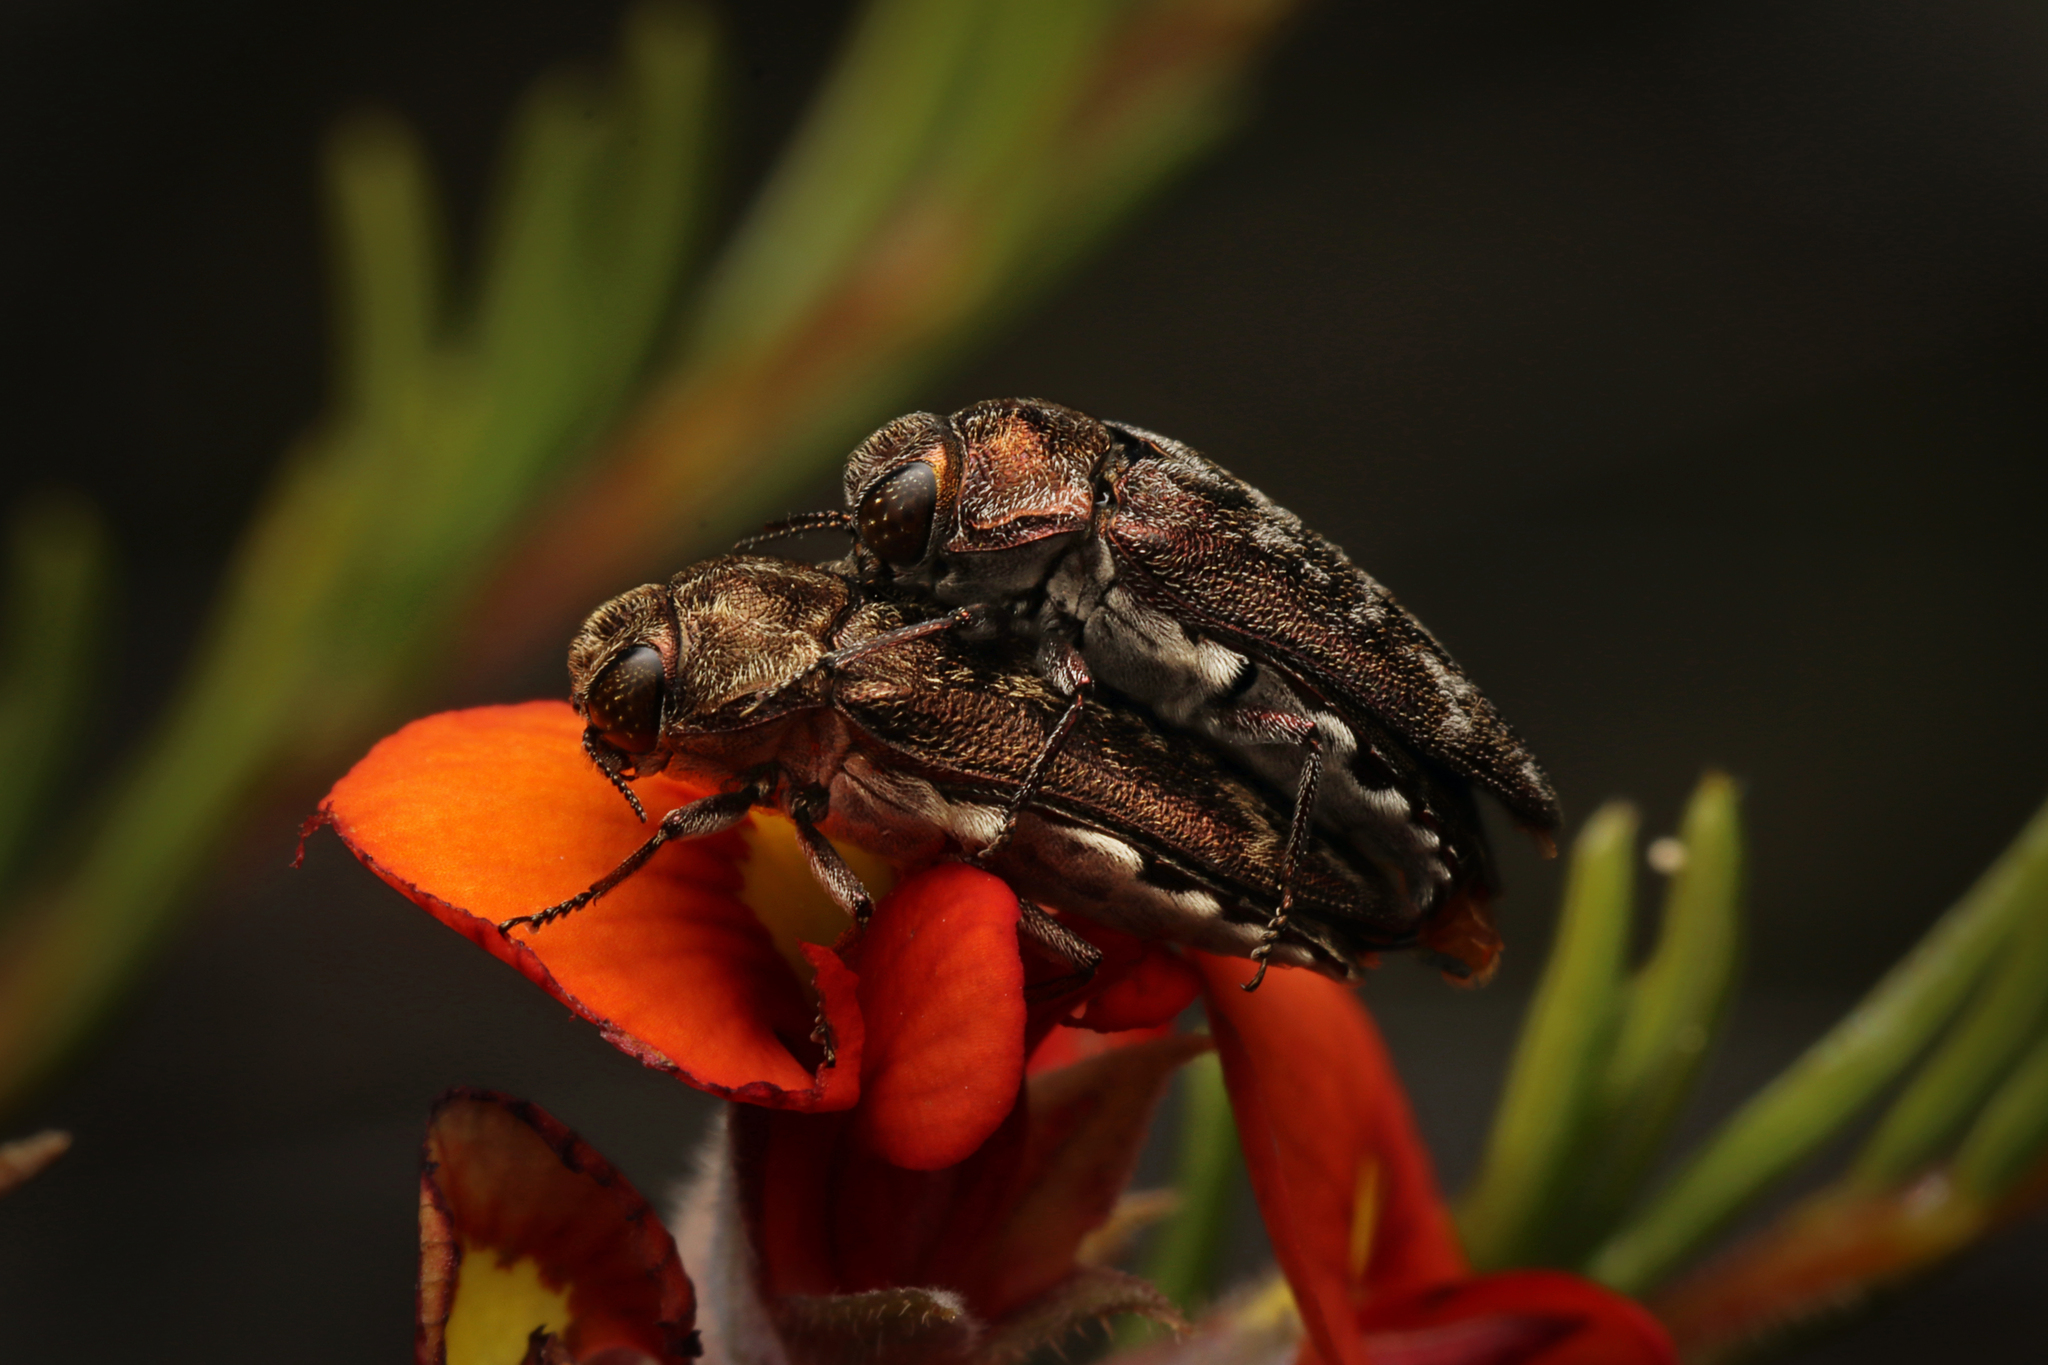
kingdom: Animalia
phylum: Arthropoda
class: Insecta
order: Coleoptera
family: Buprestidae
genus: Ethonion
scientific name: Ethonion reichei
